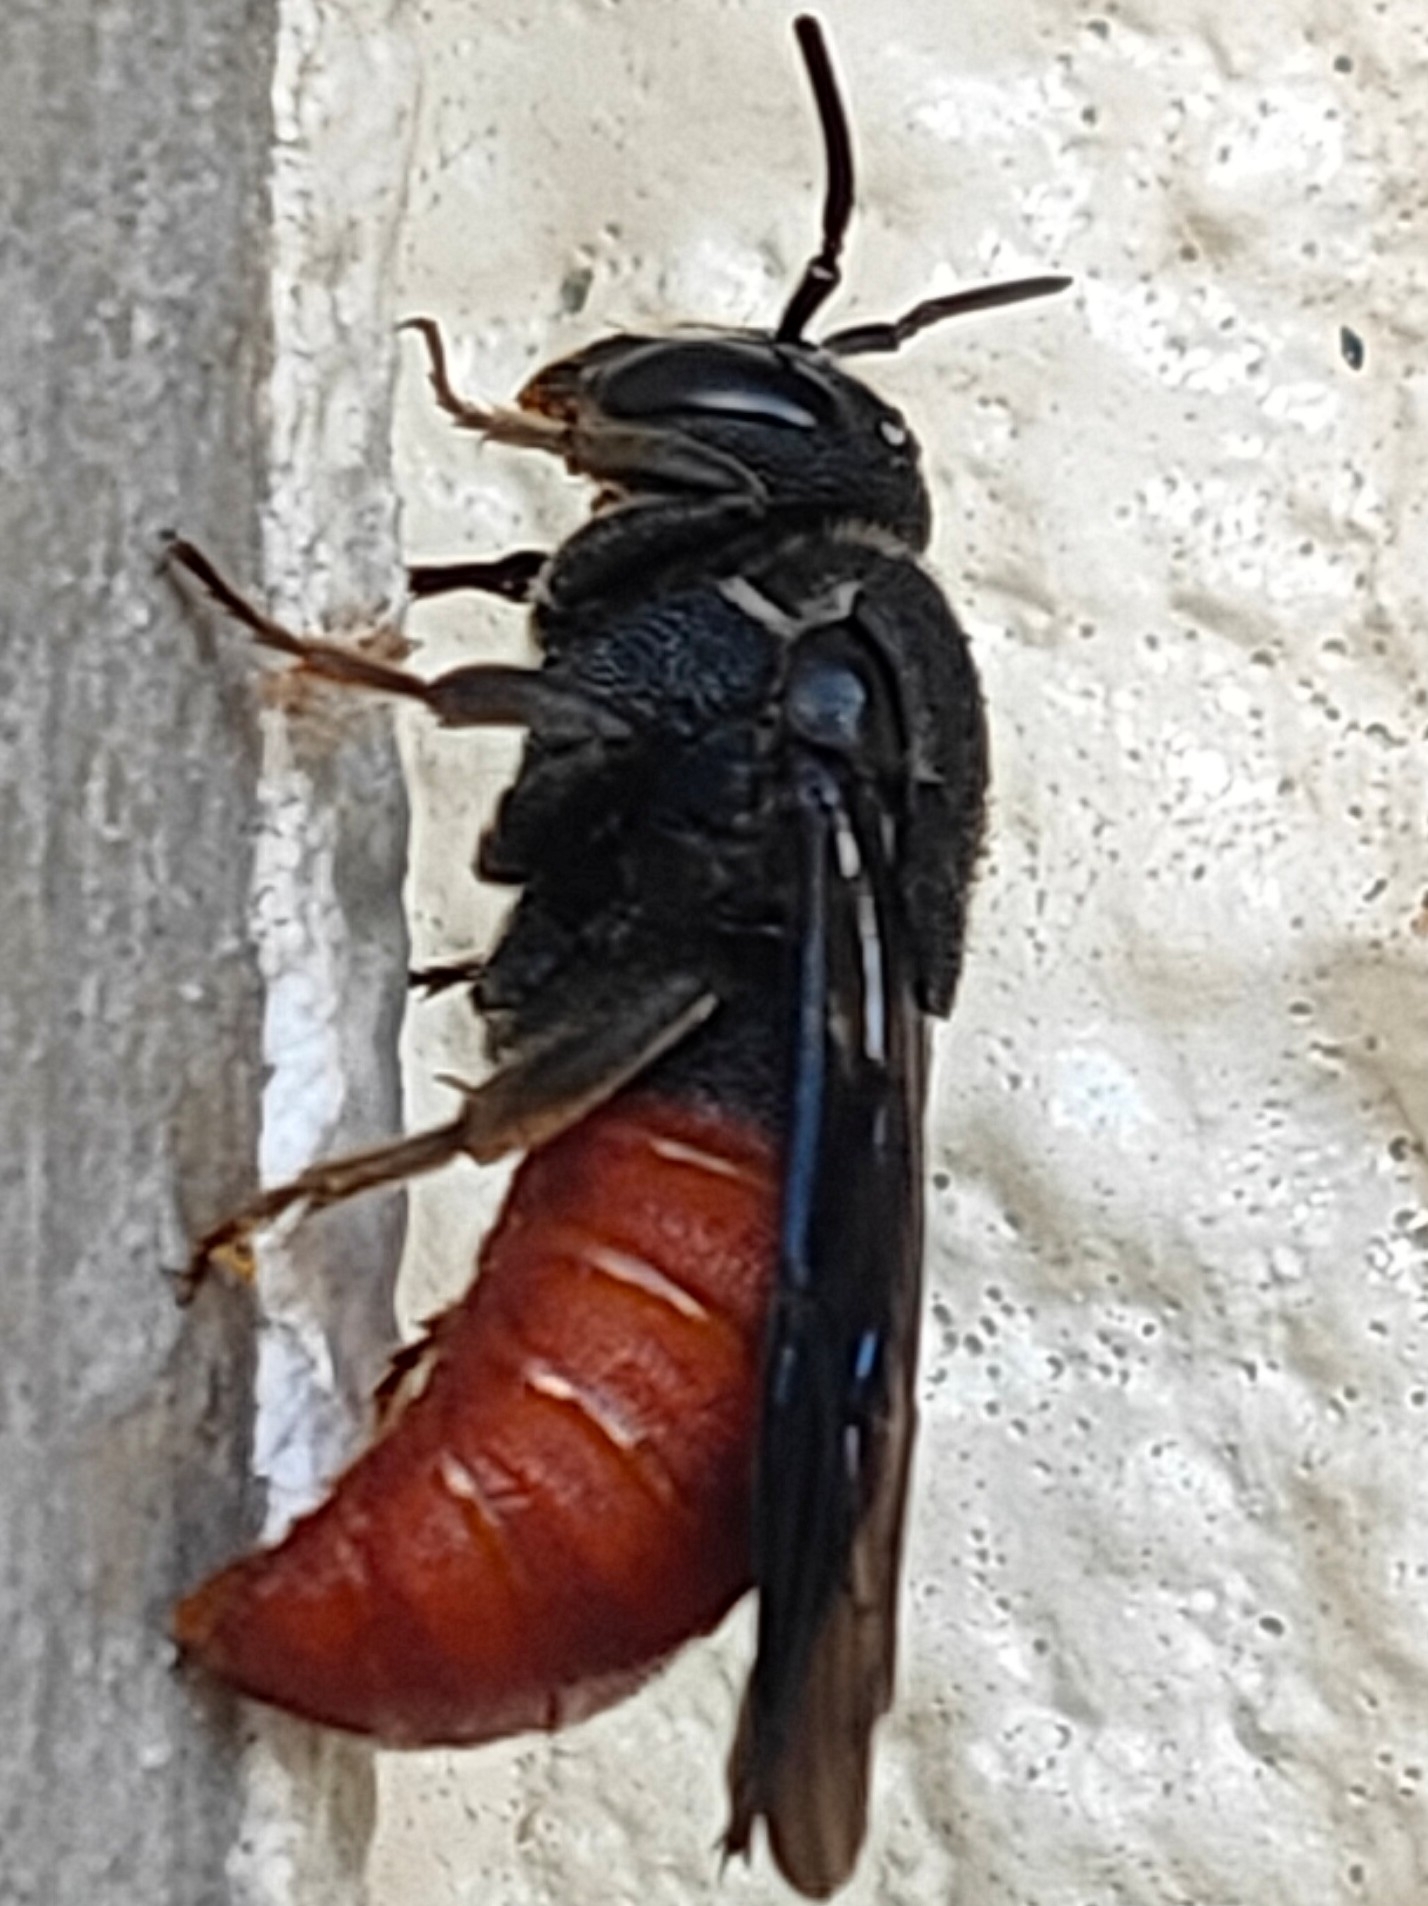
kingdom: Animalia
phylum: Arthropoda
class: Insecta
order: Hymenoptera
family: Megachilidae
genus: Euaspis
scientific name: Euaspis basalis
